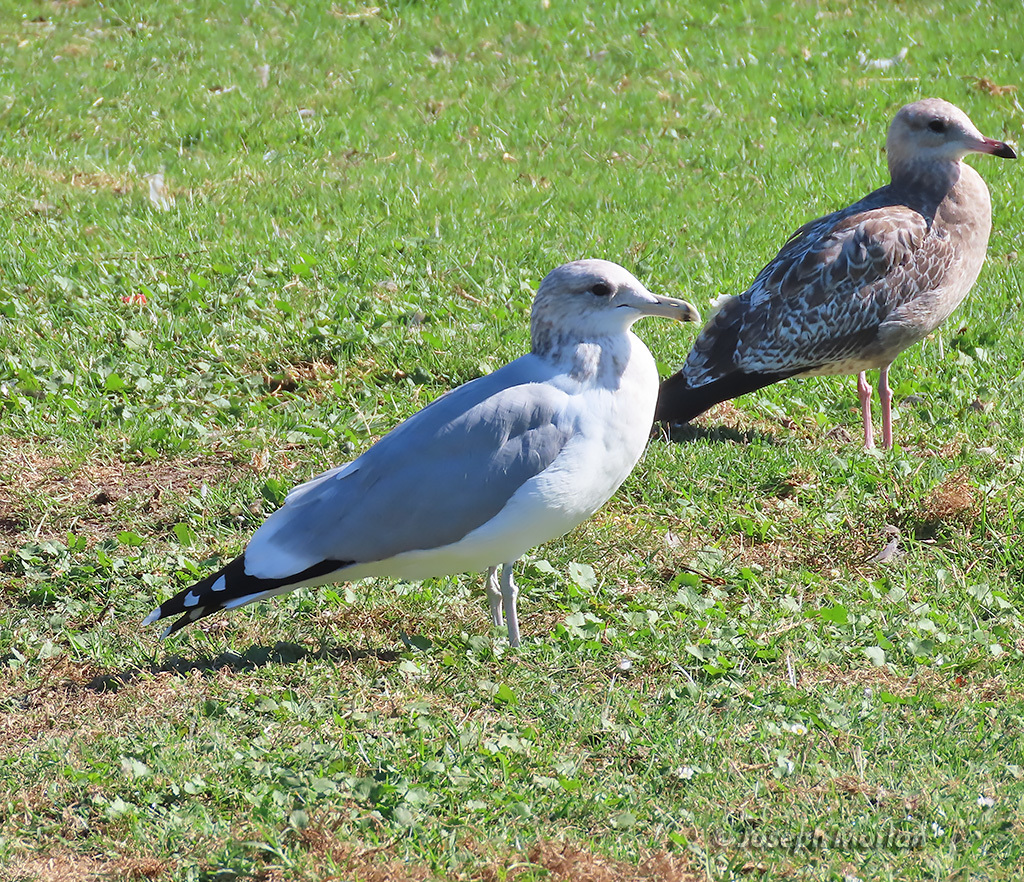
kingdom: Animalia
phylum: Chordata
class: Aves
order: Charadriiformes
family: Laridae
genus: Larus
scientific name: Larus californicus
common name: California gull
